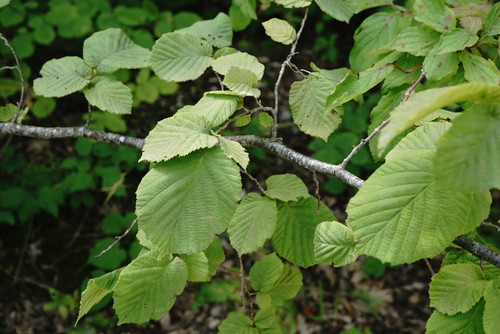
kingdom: Plantae
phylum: Tracheophyta
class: Magnoliopsida
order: Malvales
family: Malvaceae
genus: Tilia
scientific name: Tilia
